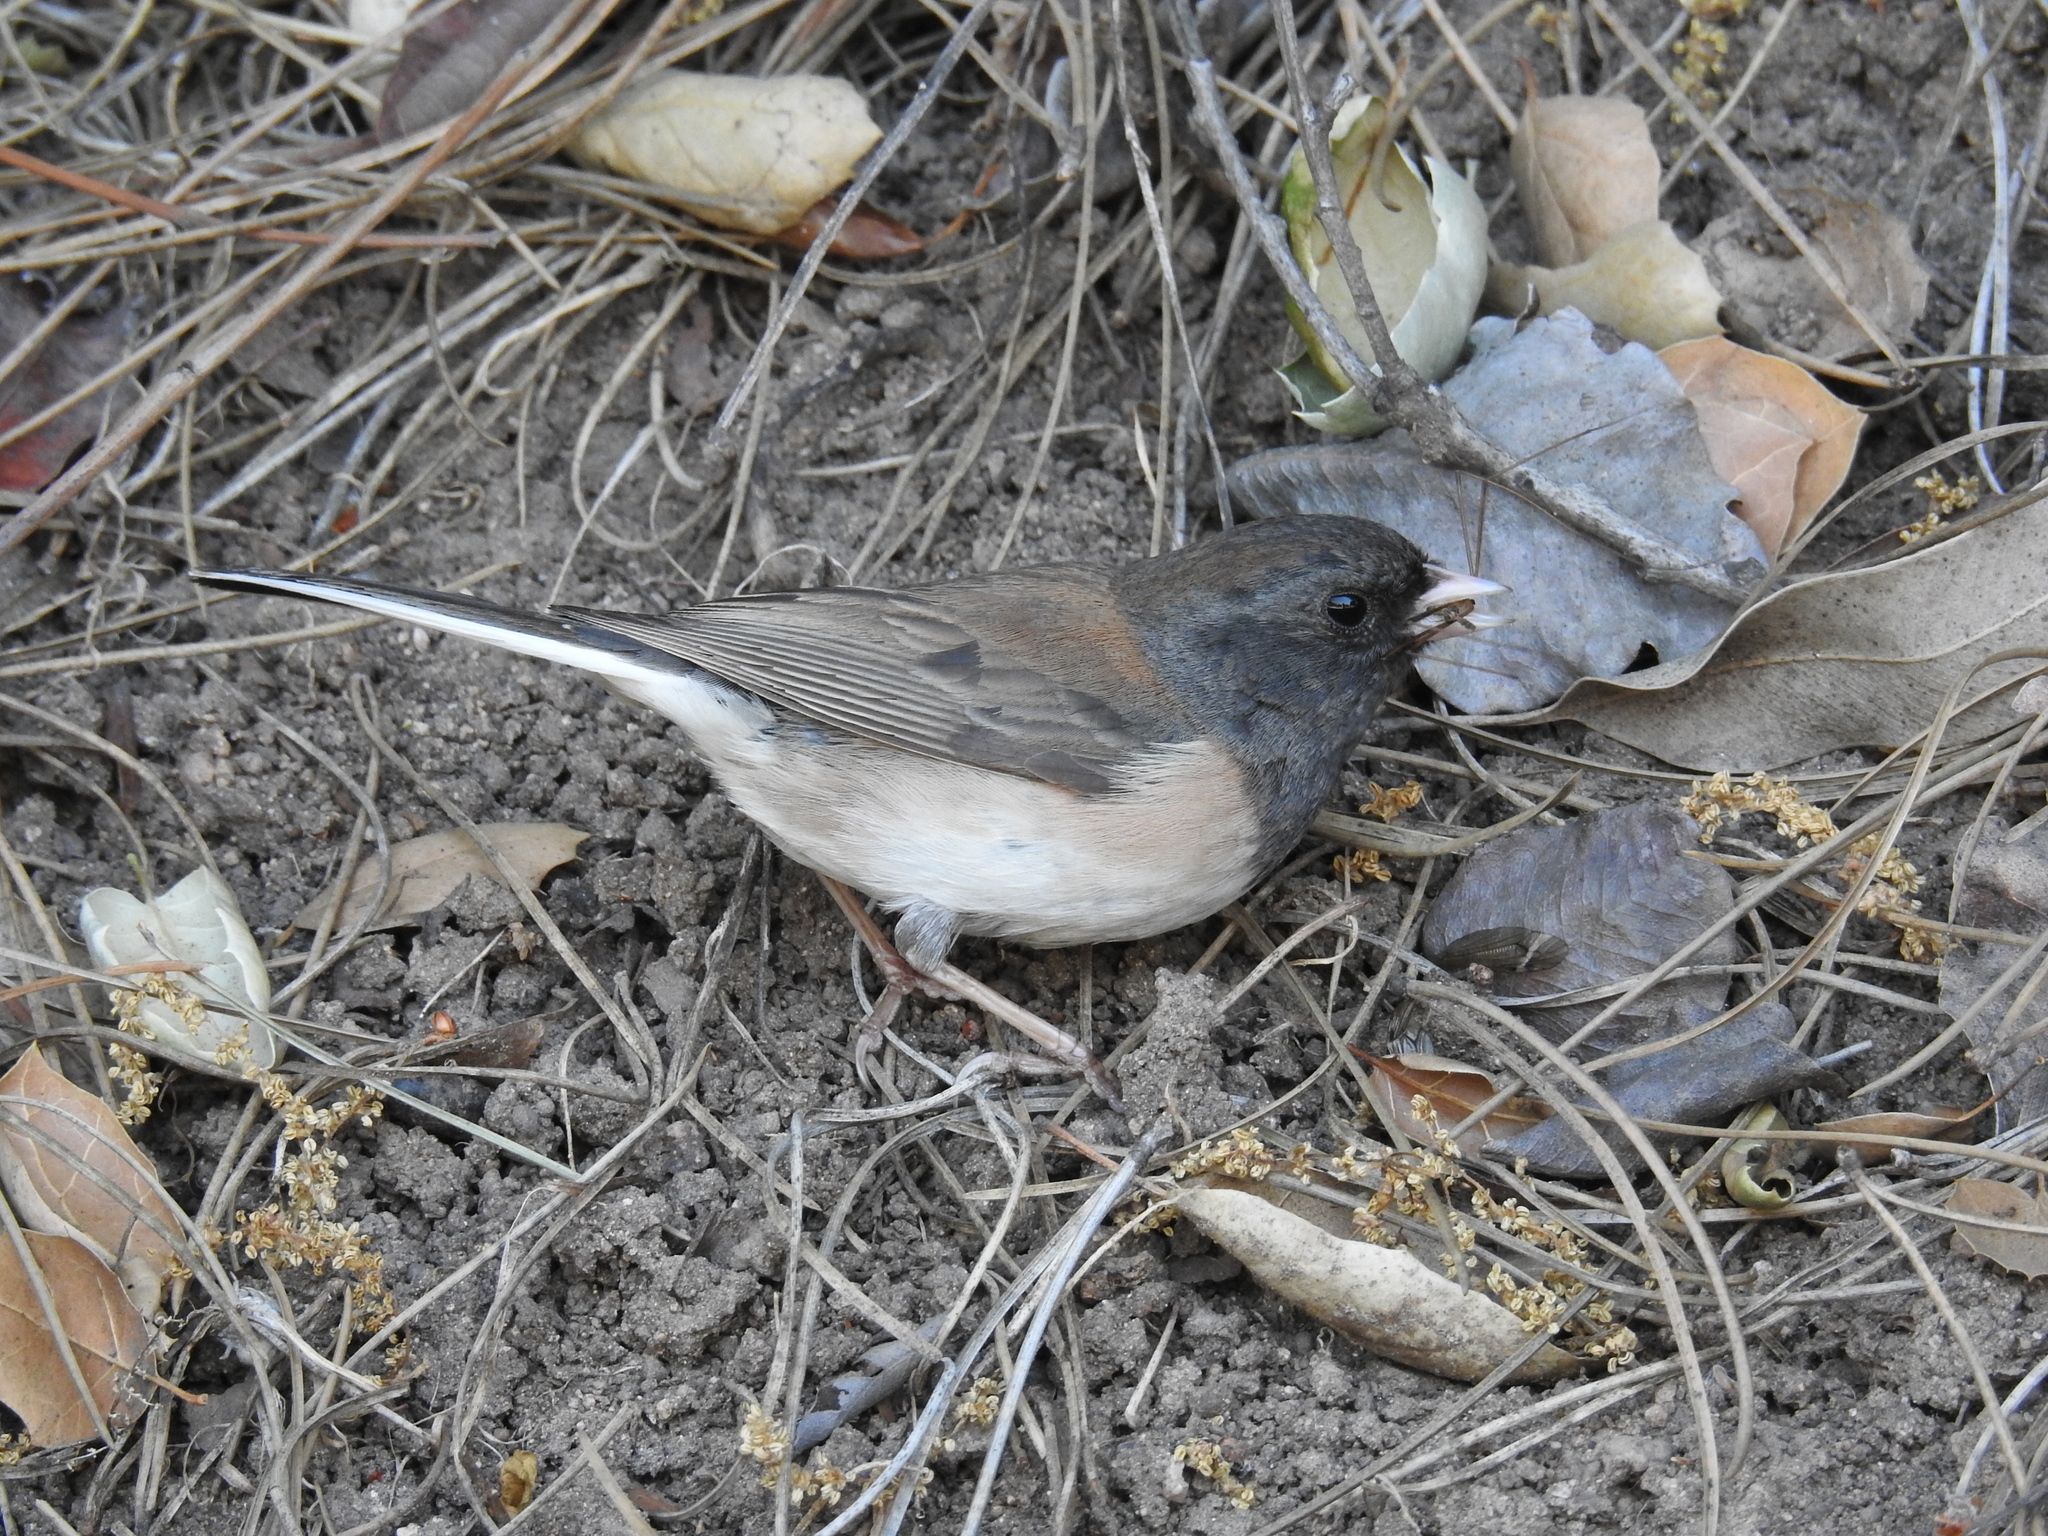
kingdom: Animalia
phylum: Chordata
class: Aves
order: Passeriformes
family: Passerellidae
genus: Junco
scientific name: Junco hyemalis
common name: Dark-eyed junco
